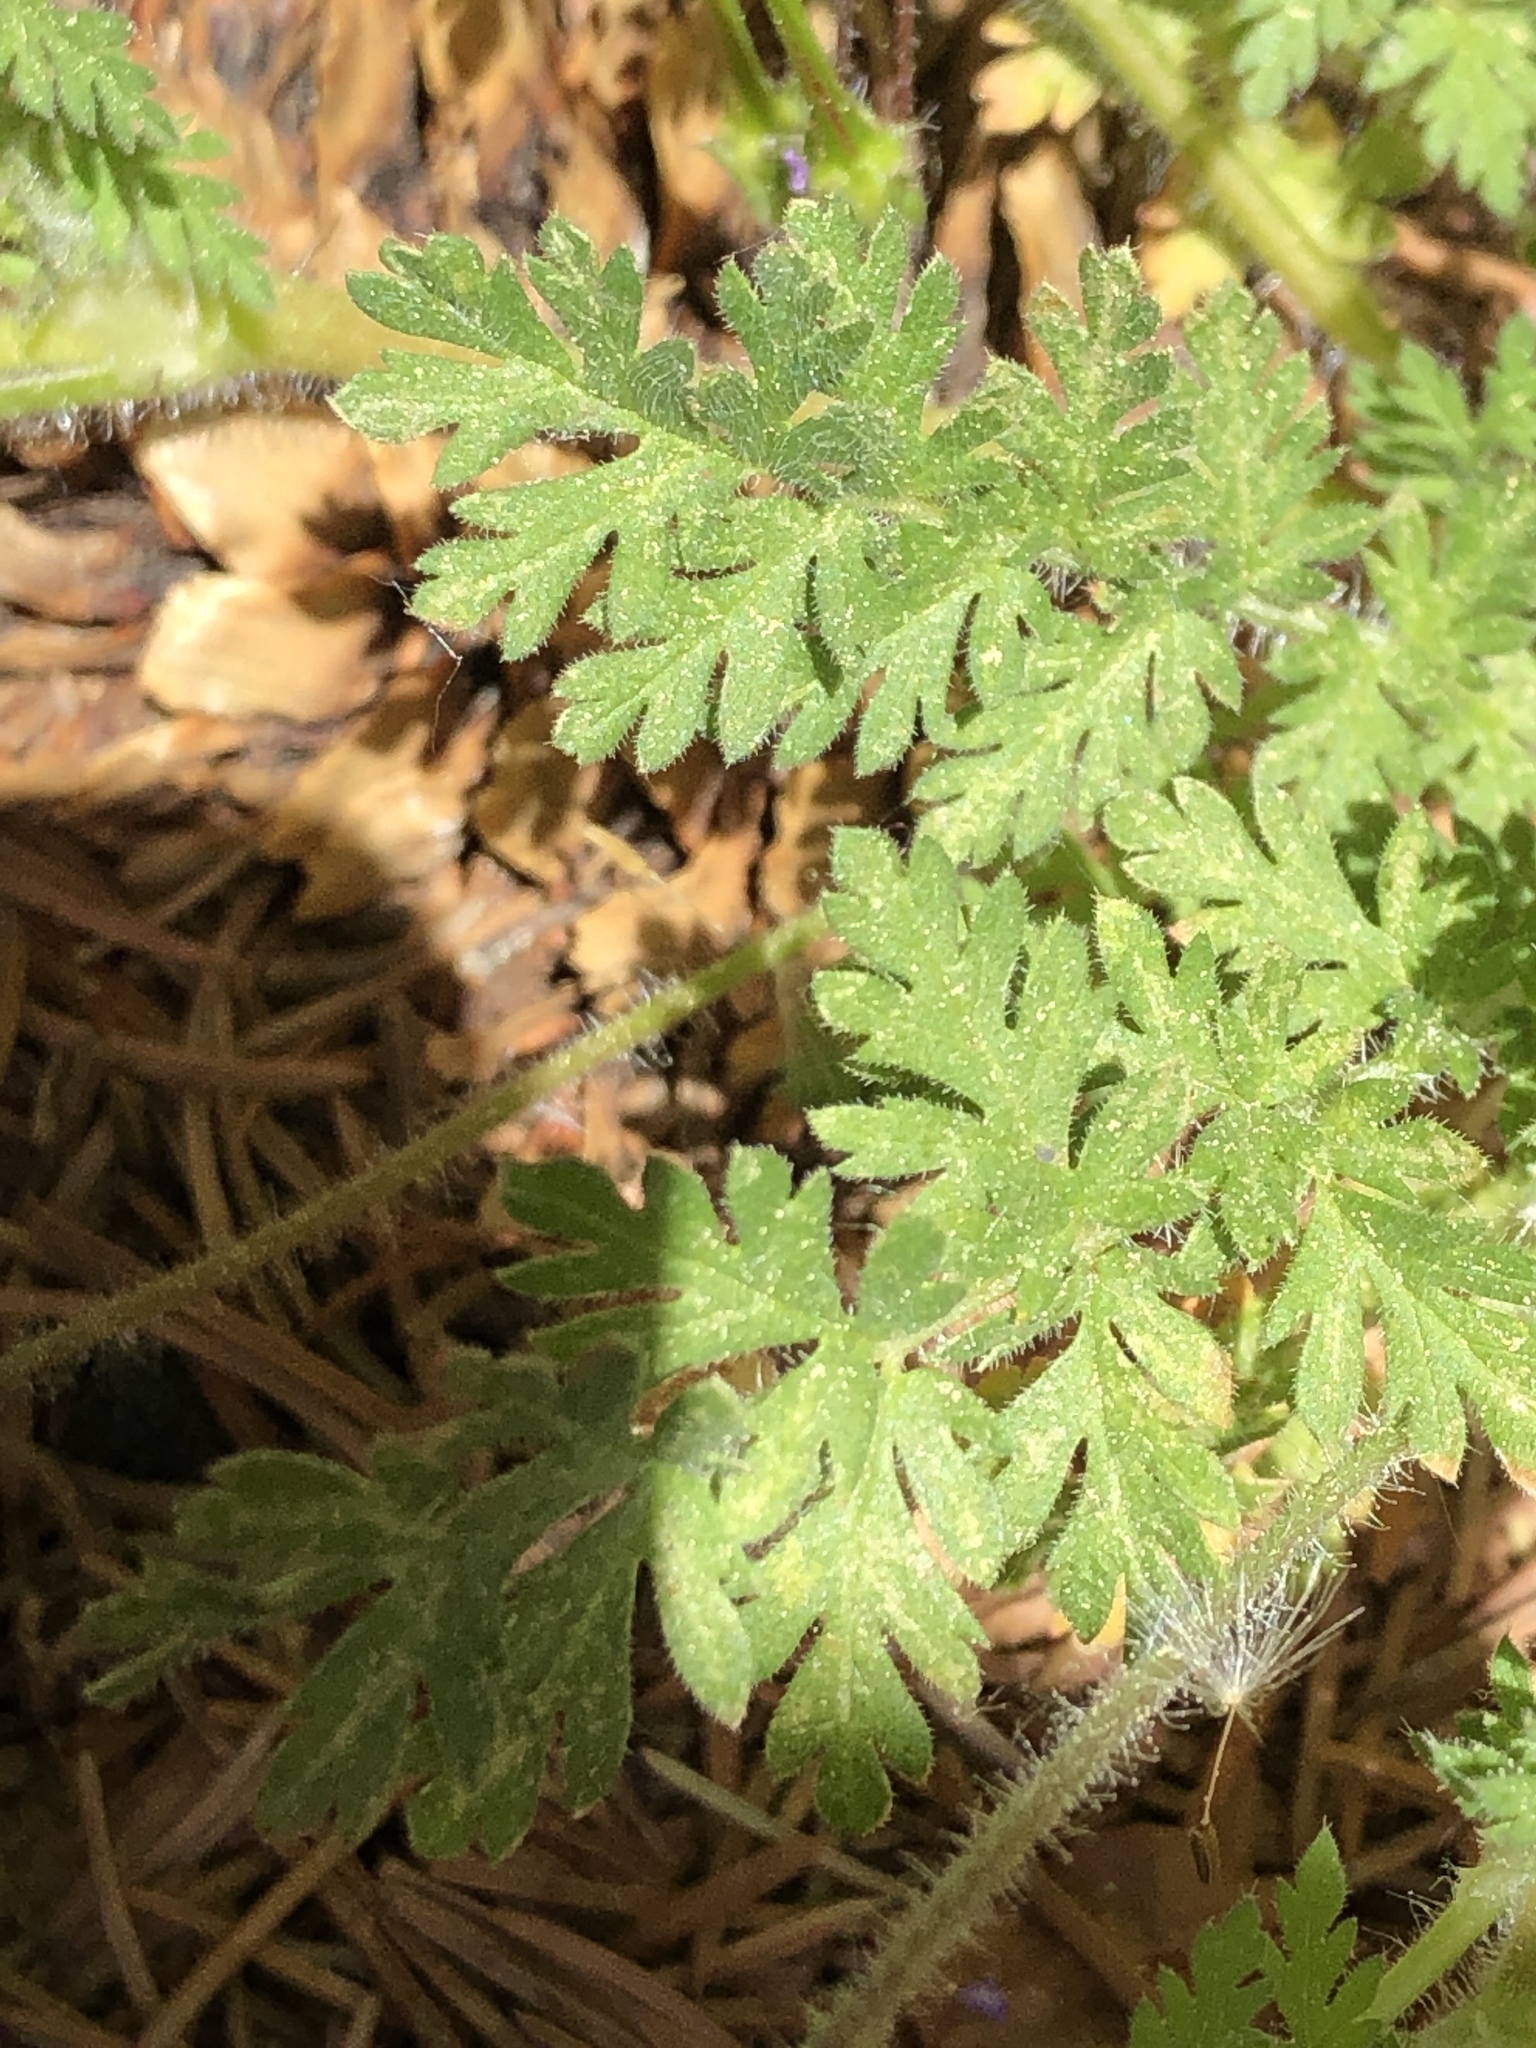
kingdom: Plantae
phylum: Tracheophyta
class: Magnoliopsida
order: Geraniales
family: Geraniaceae
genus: Erodium
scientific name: Erodium cicutarium
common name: Common stork's-bill
